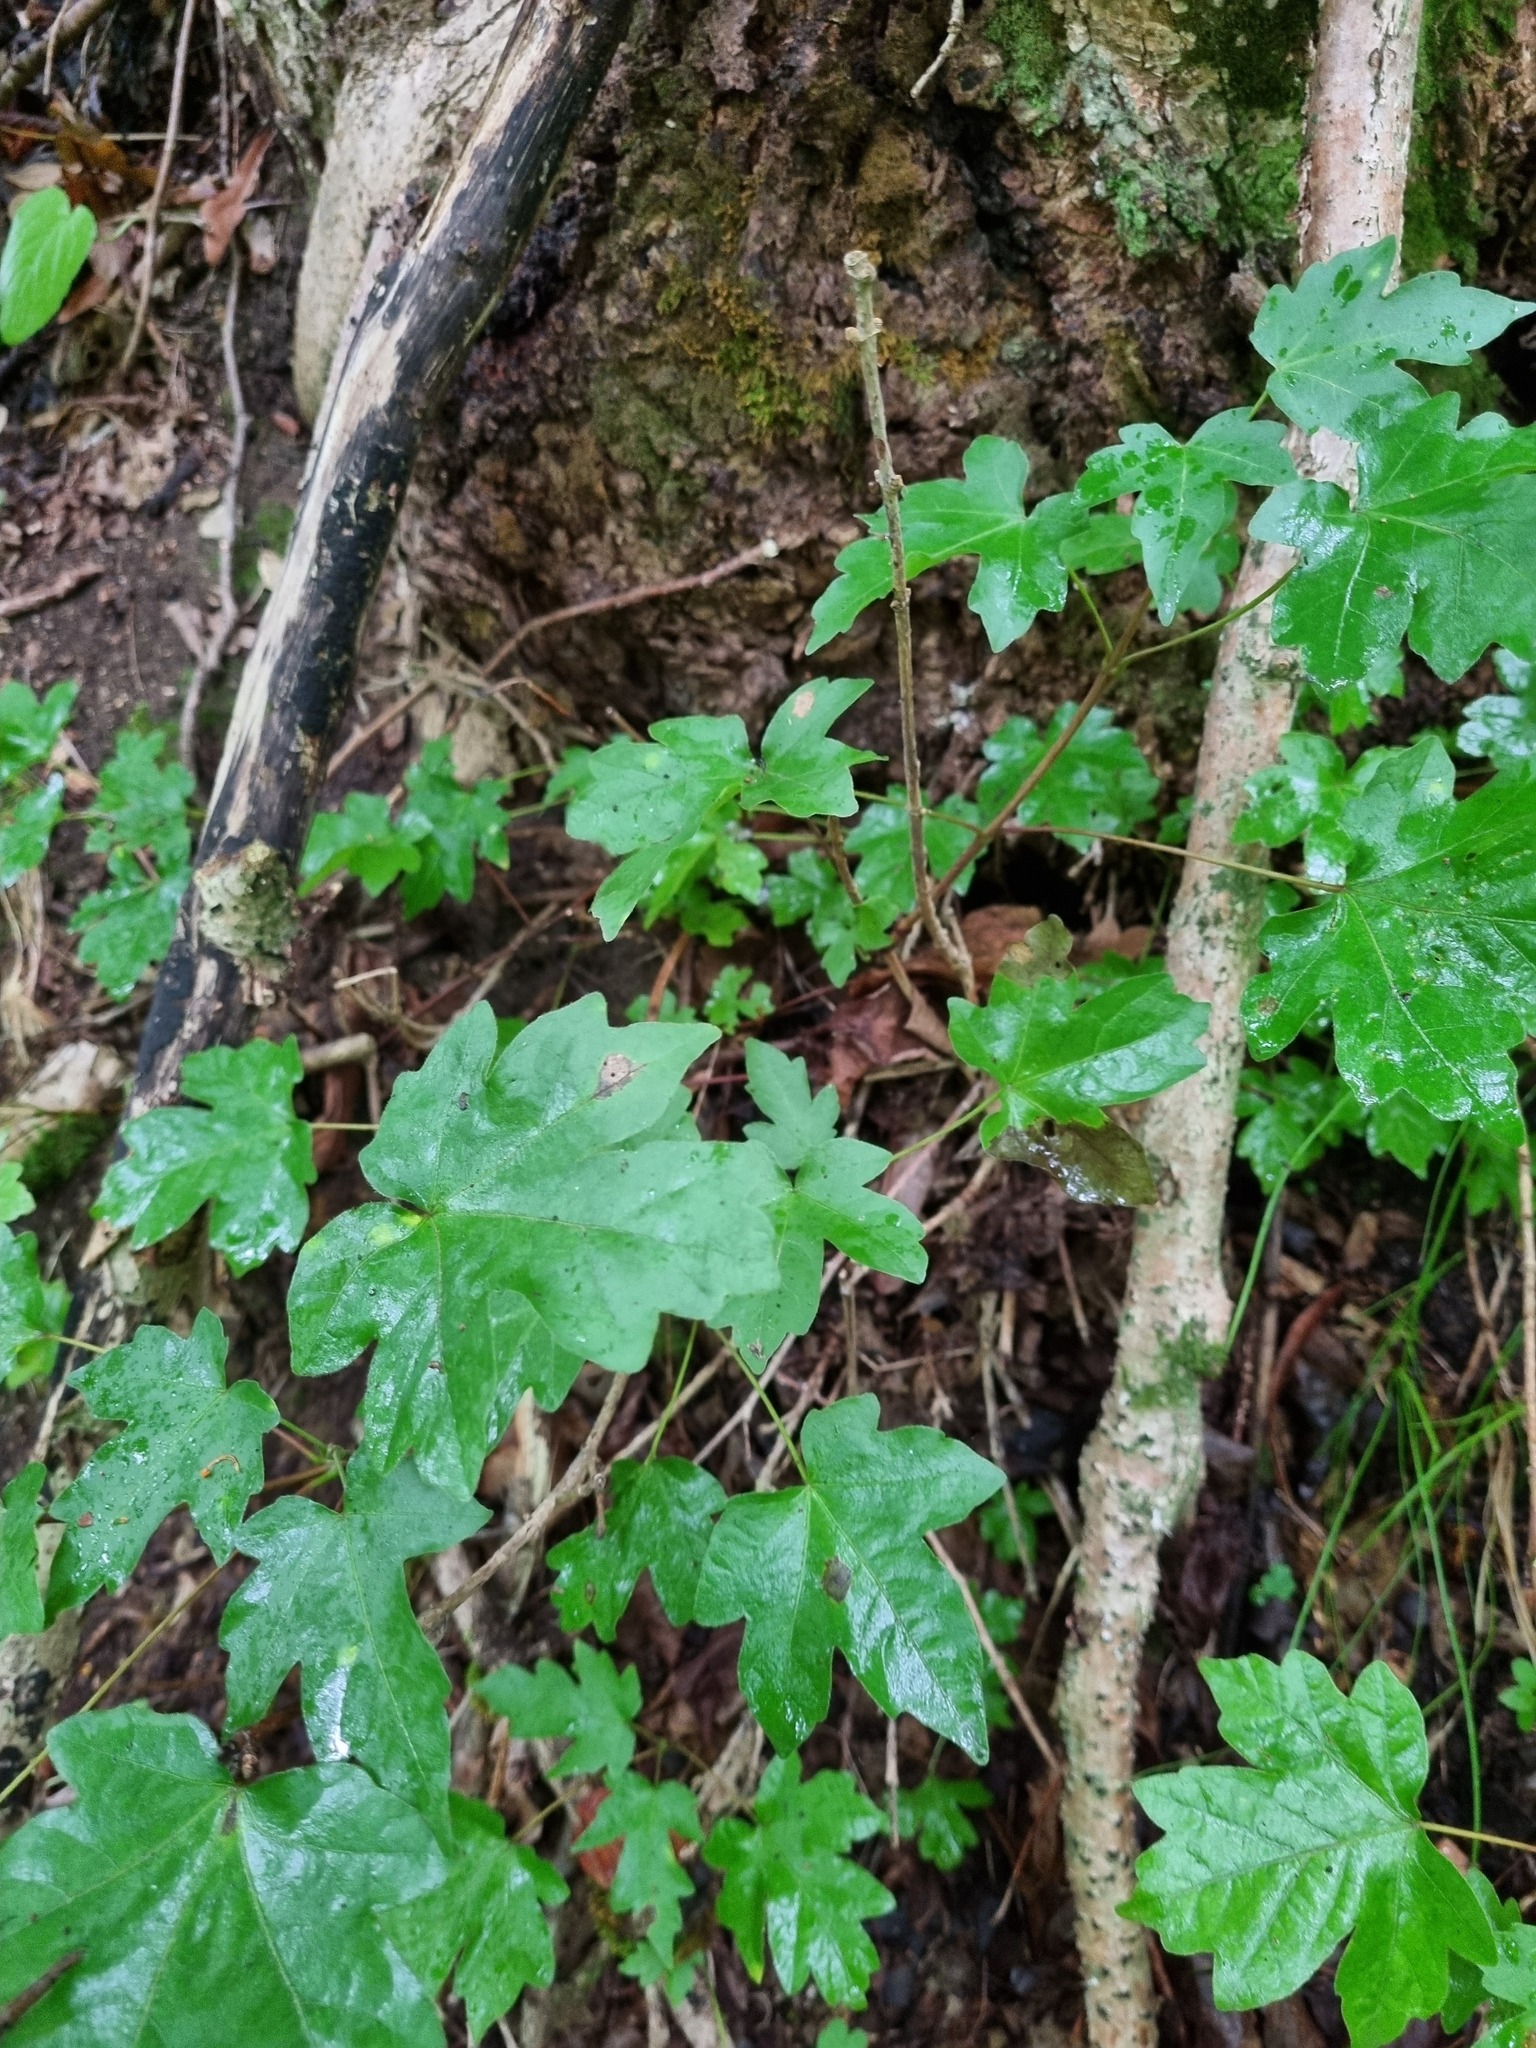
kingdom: Plantae
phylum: Tracheophyta
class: Magnoliopsida
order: Sapindales
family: Sapindaceae
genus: Acer
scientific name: Acer campestre
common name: Field maple
